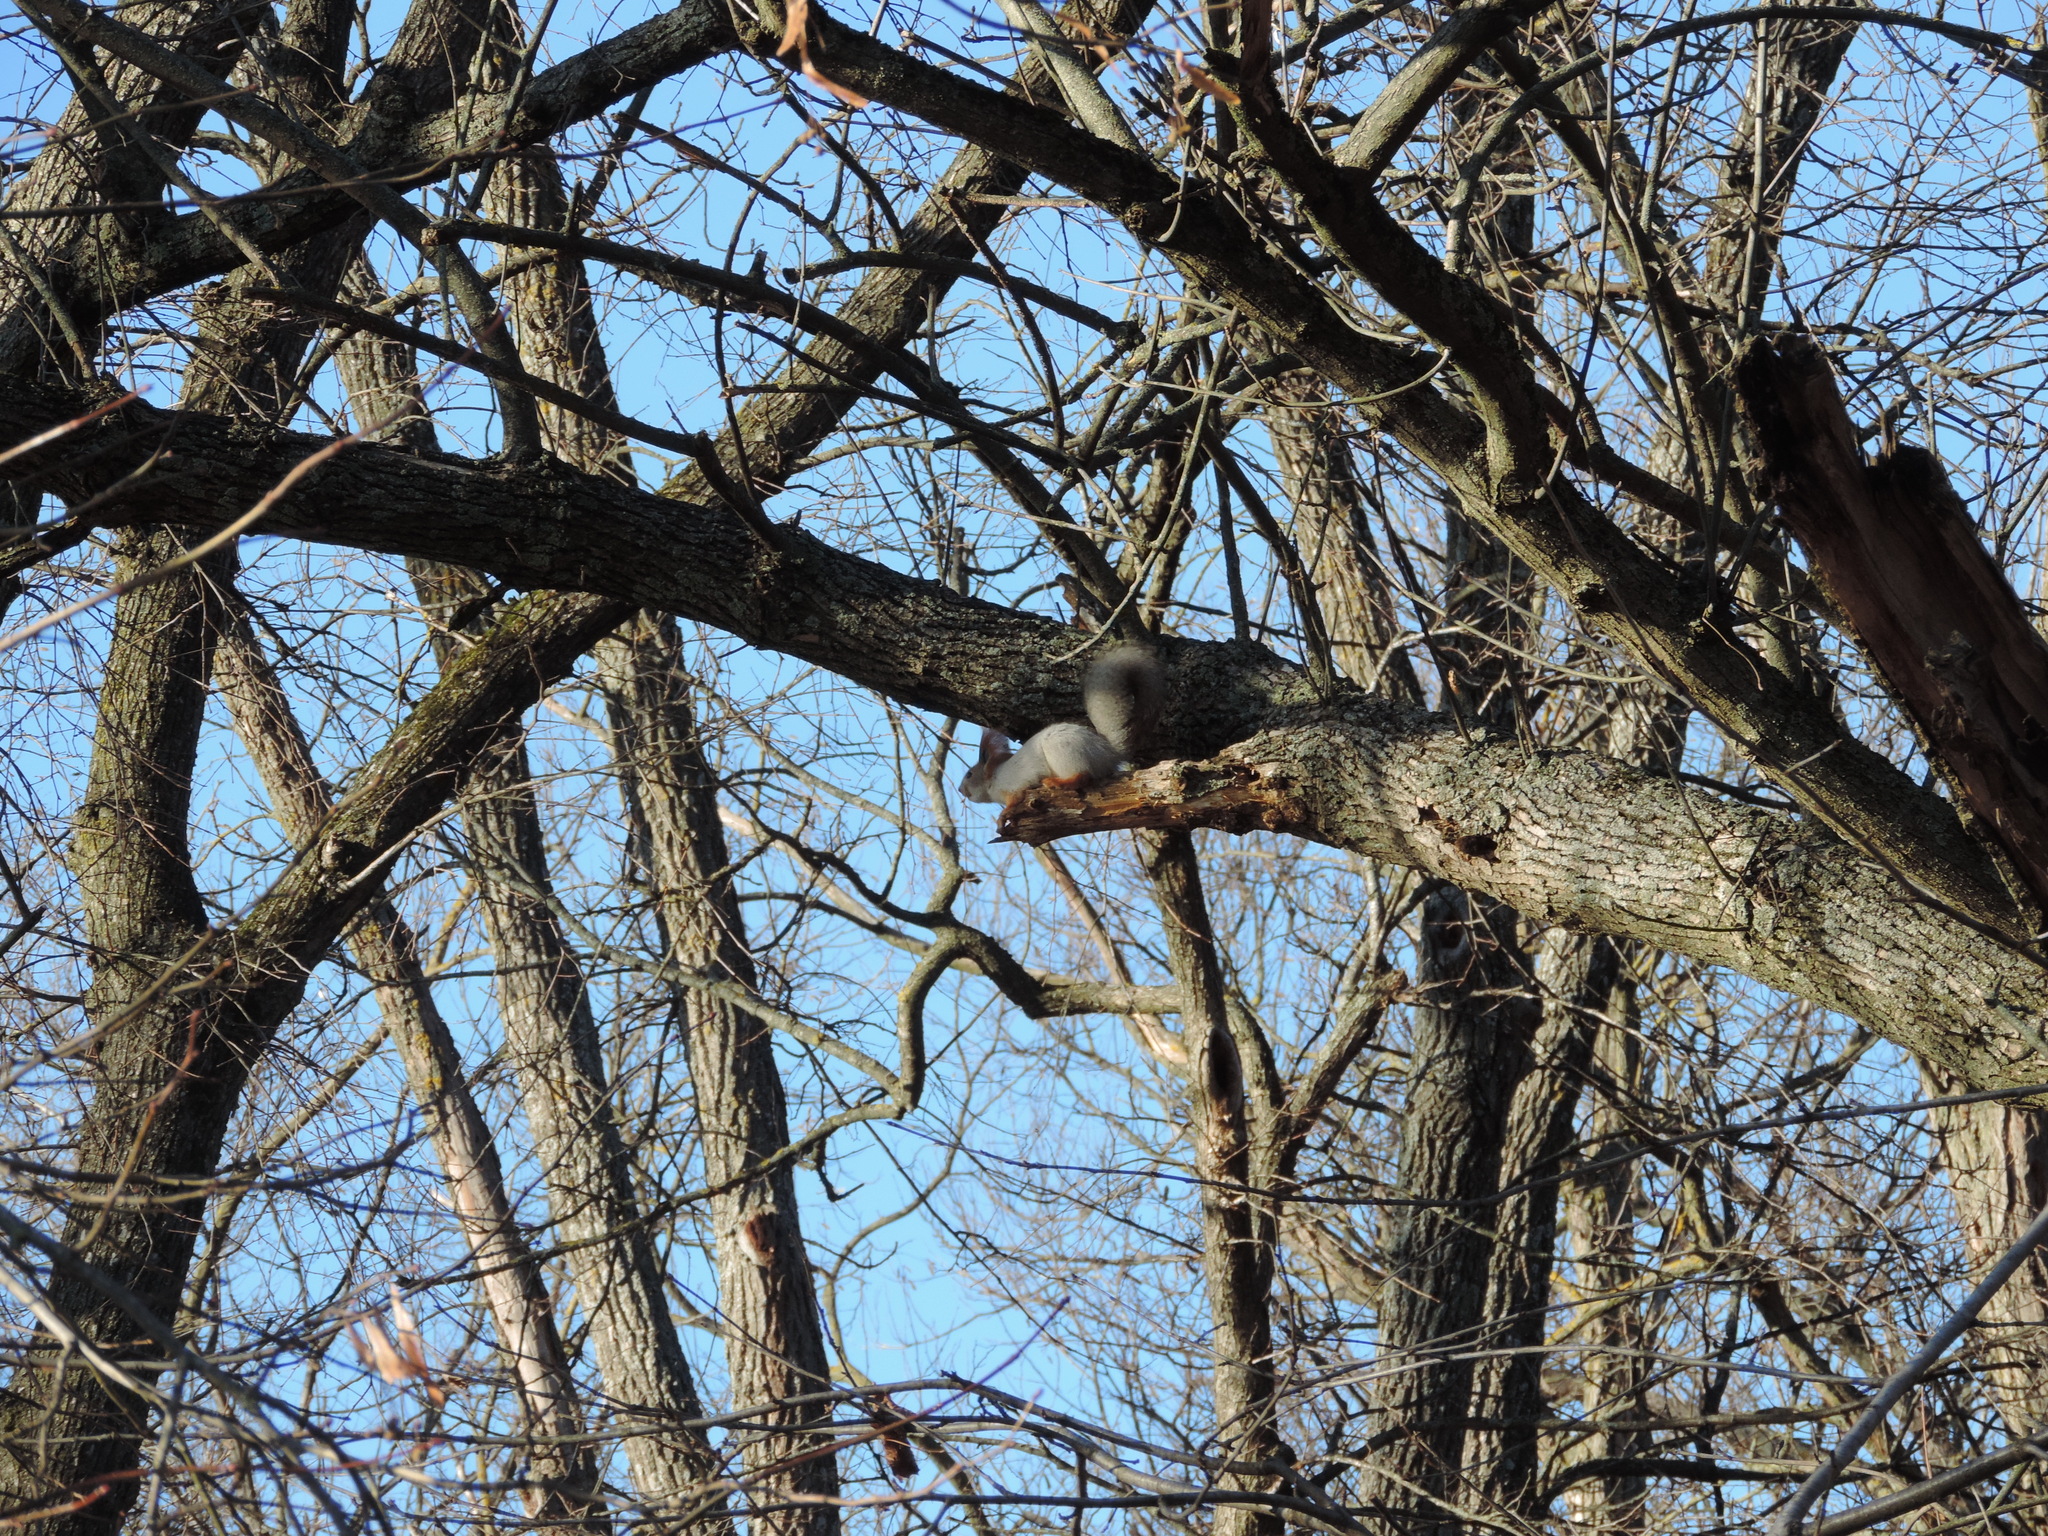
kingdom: Animalia
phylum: Chordata
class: Mammalia
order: Rodentia
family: Sciuridae
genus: Sciurus
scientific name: Sciurus vulgaris
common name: Eurasian red squirrel
